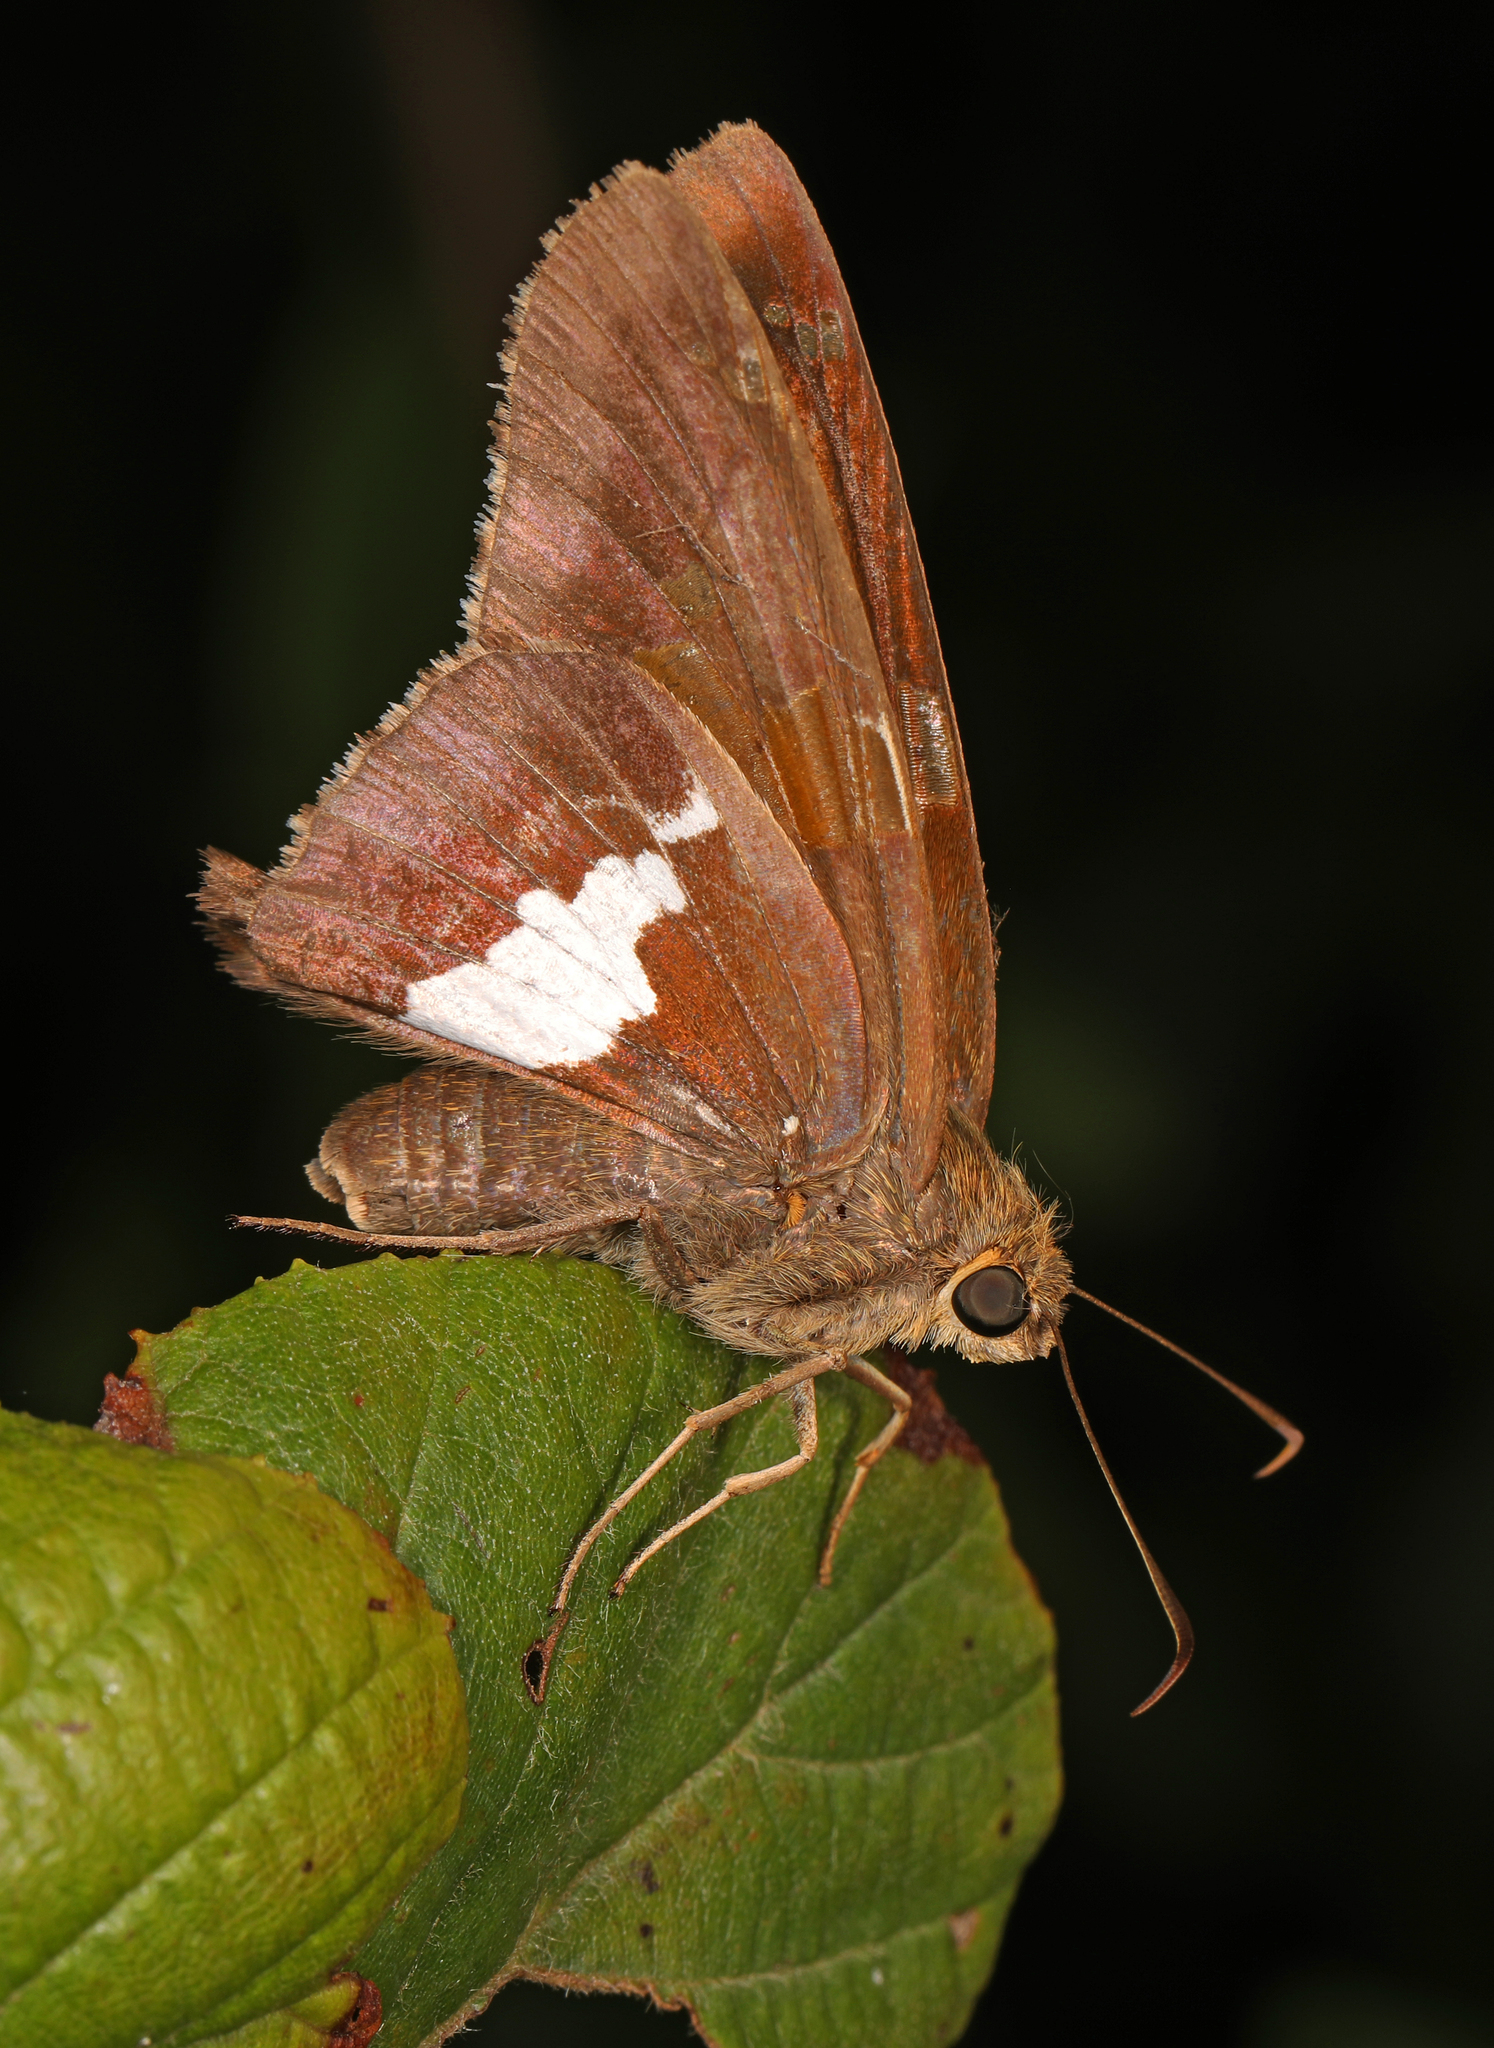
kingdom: Animalia
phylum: Arthropoda
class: Insecta
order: Lepidoptera
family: Hesperiidae
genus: Epargyreus
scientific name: Epargyreus clarus
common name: Silver-spotted skipper
